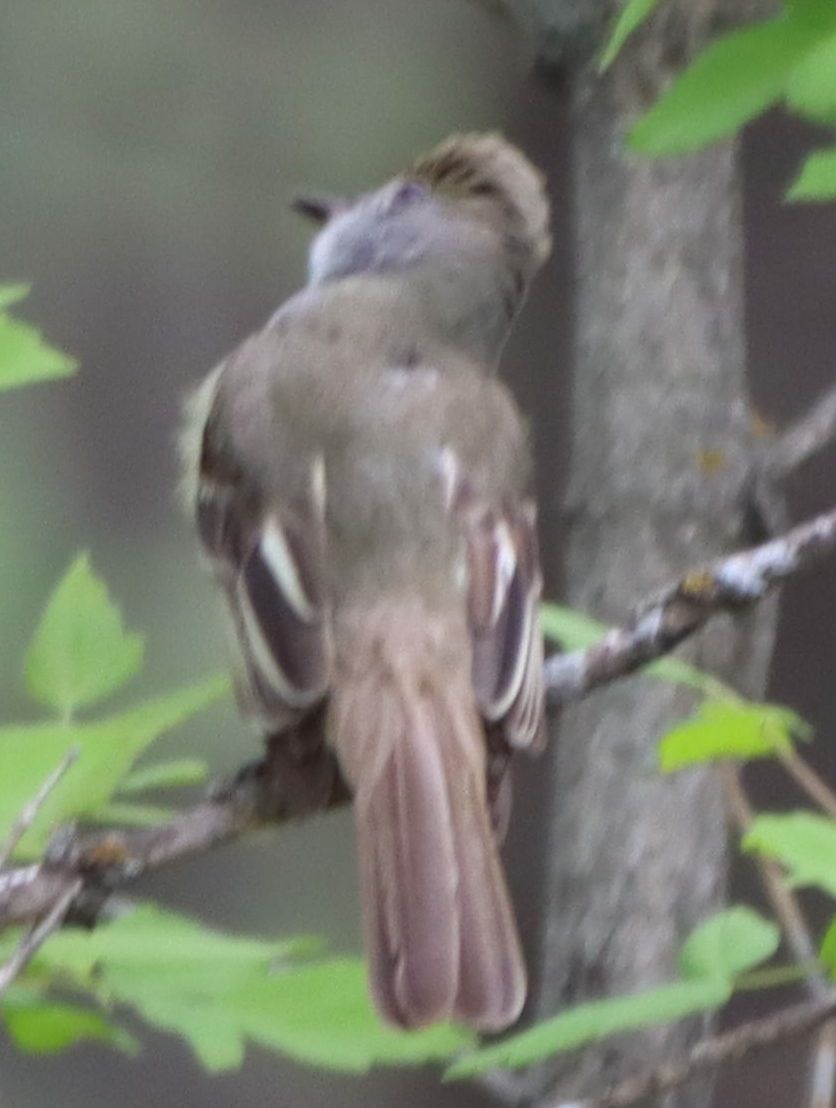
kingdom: Animalia
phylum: Chordata
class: Aves
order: Passeriformes
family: Tyrannidae
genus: Myiarchus
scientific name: Myiarchus crinitus
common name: Great crested flycatcher
